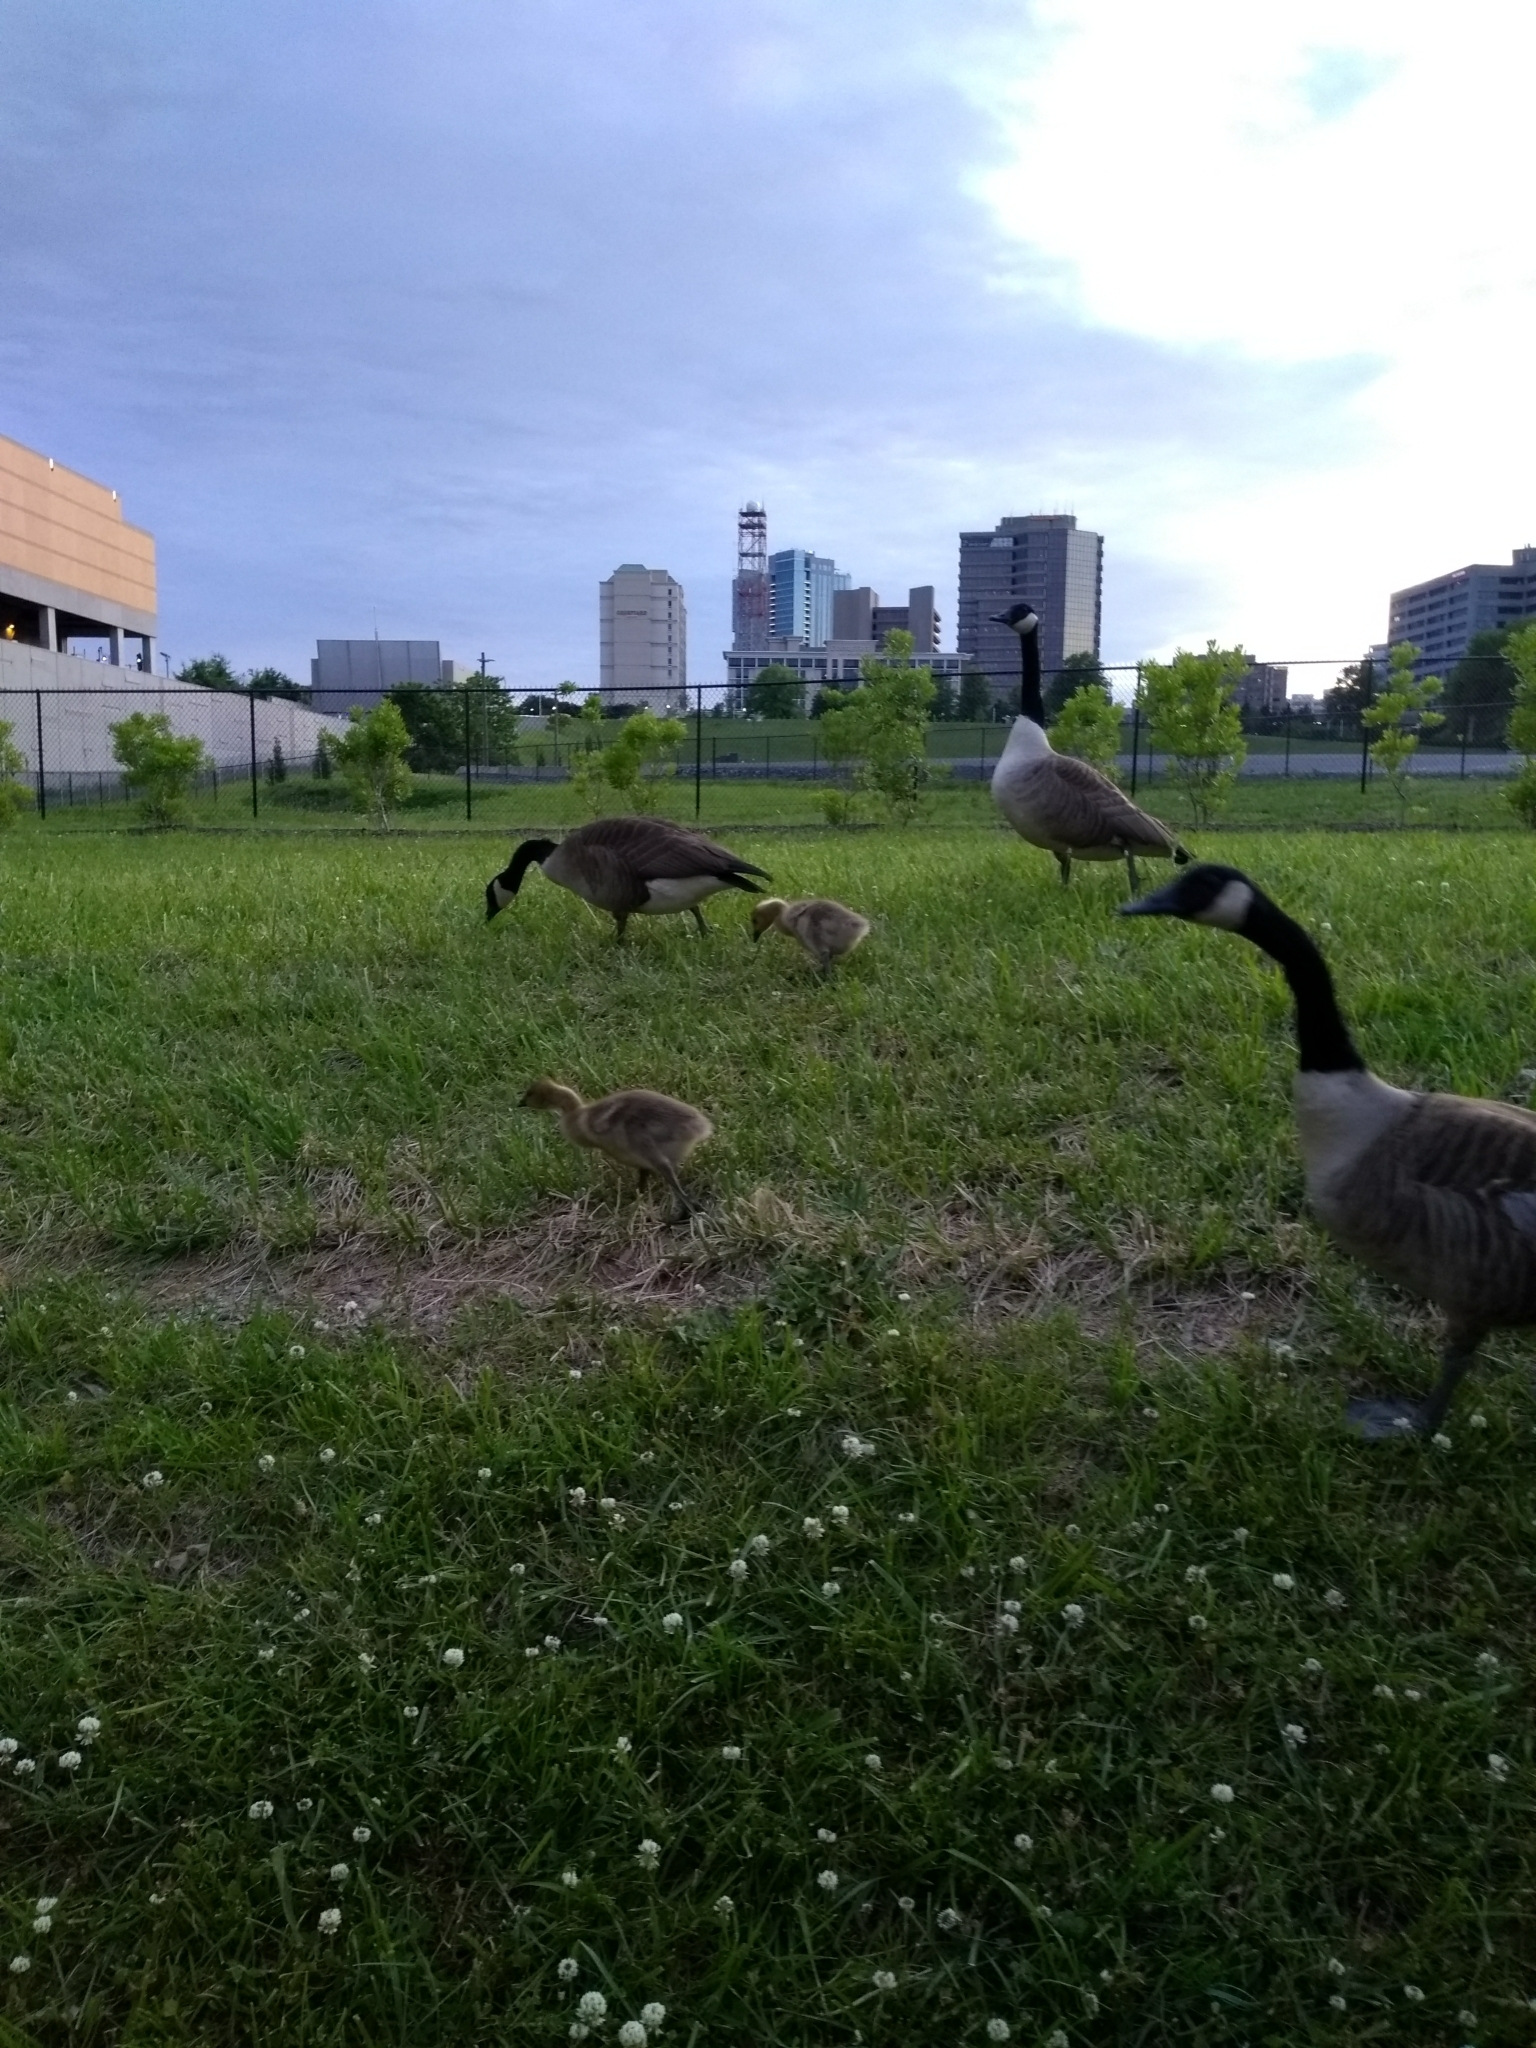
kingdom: Animalia
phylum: Chordata
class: Aves
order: Anseriformes
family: Anatidae
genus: Branta
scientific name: Branta canadensis
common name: Canada goose
